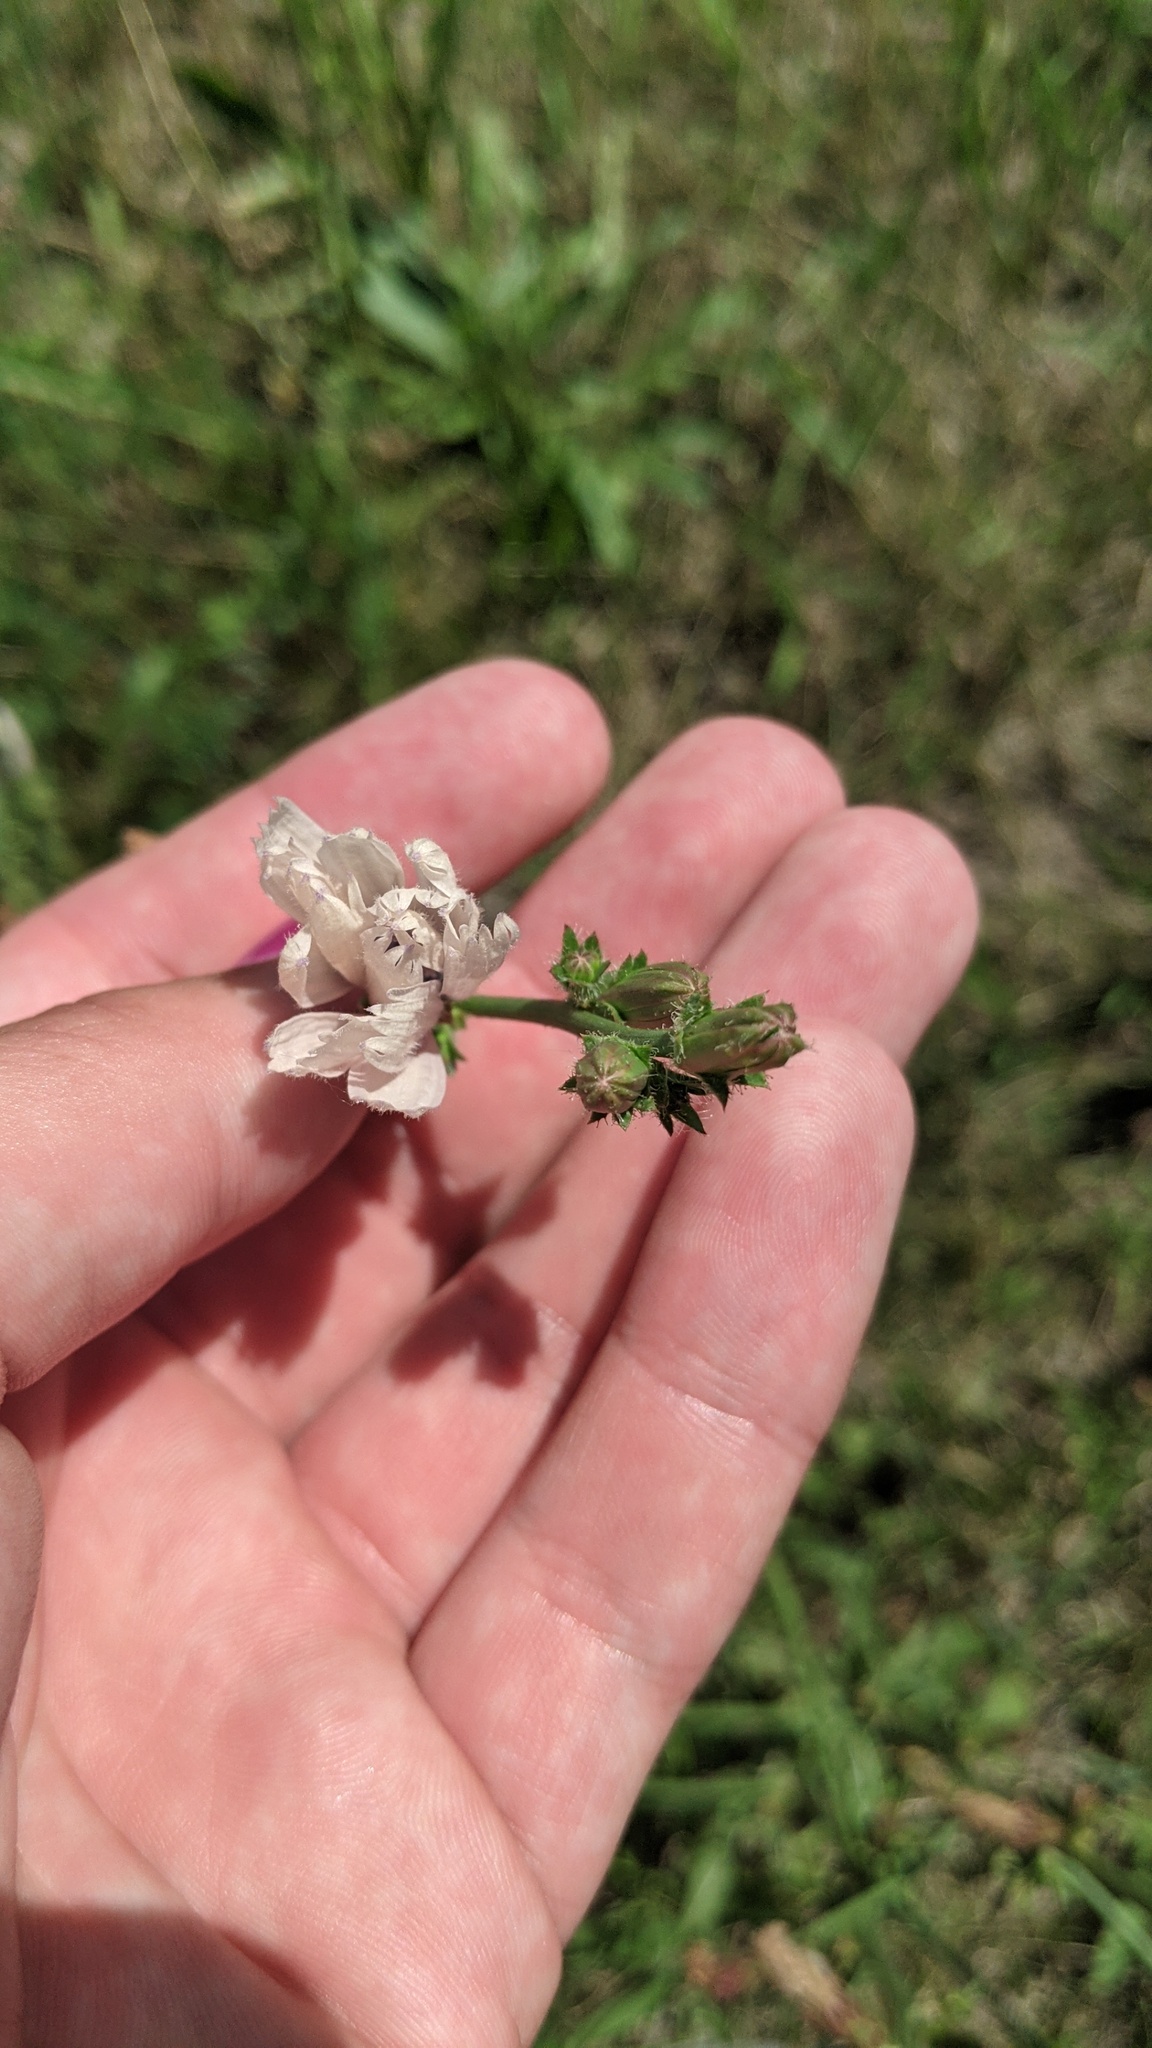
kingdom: Plantae
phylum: Tracheophyta
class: Magnoliopsida
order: Asterales
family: Asteraceae
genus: Cichorium
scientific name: Cichorium intybus
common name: Chicory
